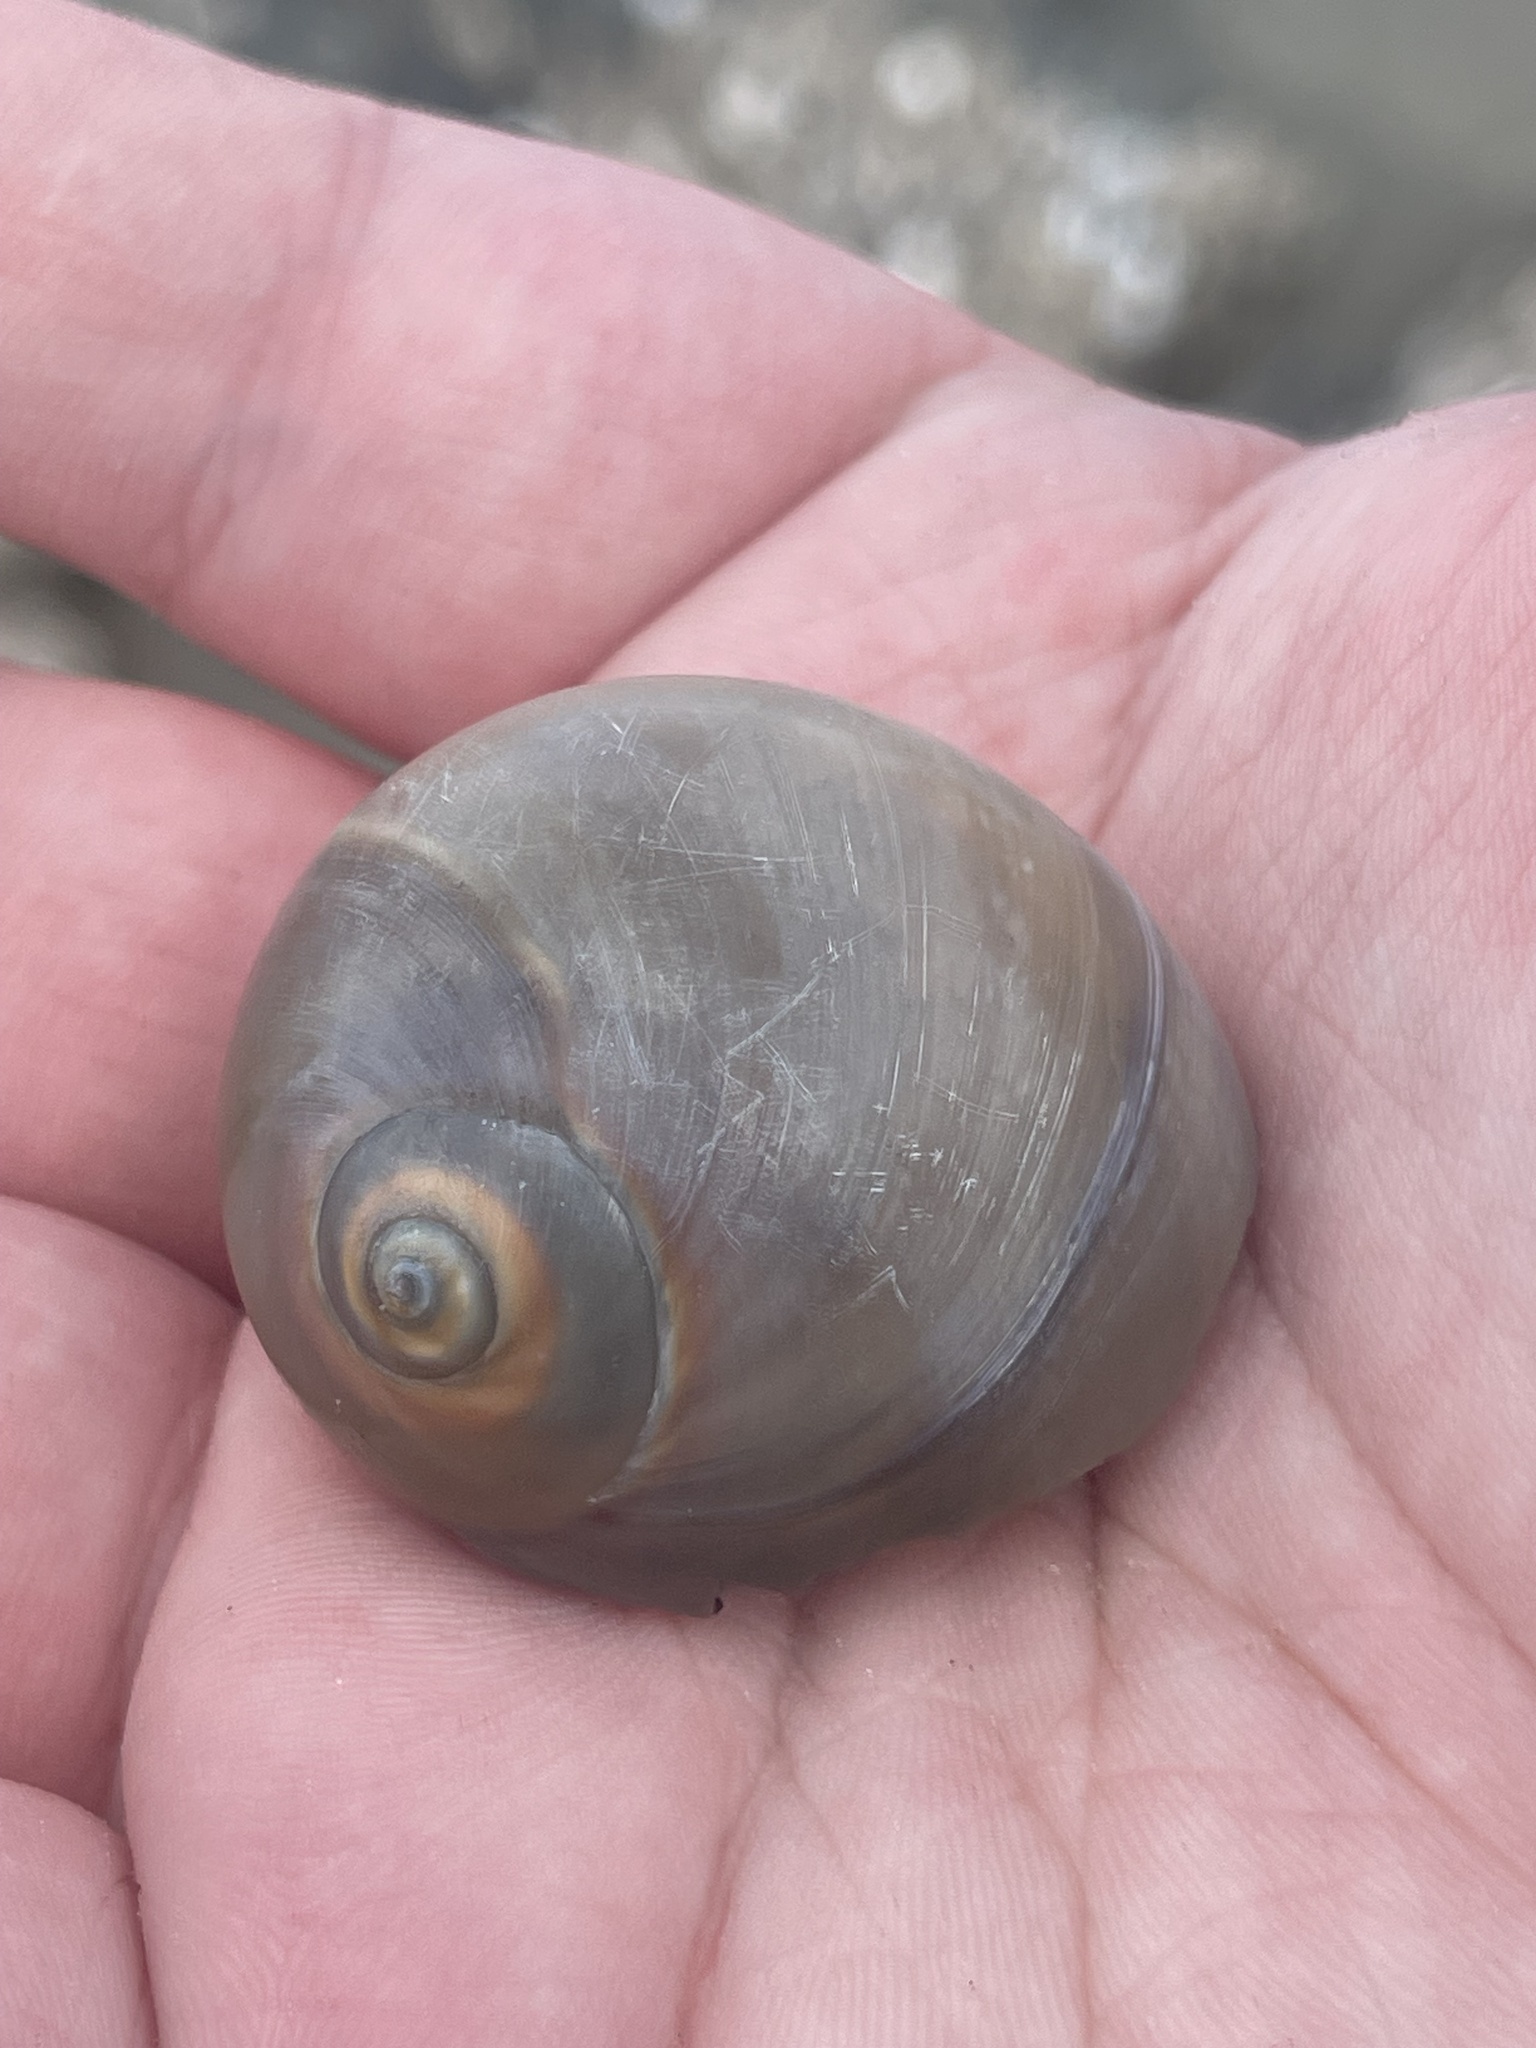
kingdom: Animalia
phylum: Mollusca
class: Gastropoda
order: Littorinimorpha
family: Naticidae
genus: Neverita
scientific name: Neverita duplicata
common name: Lobed moonsnail
